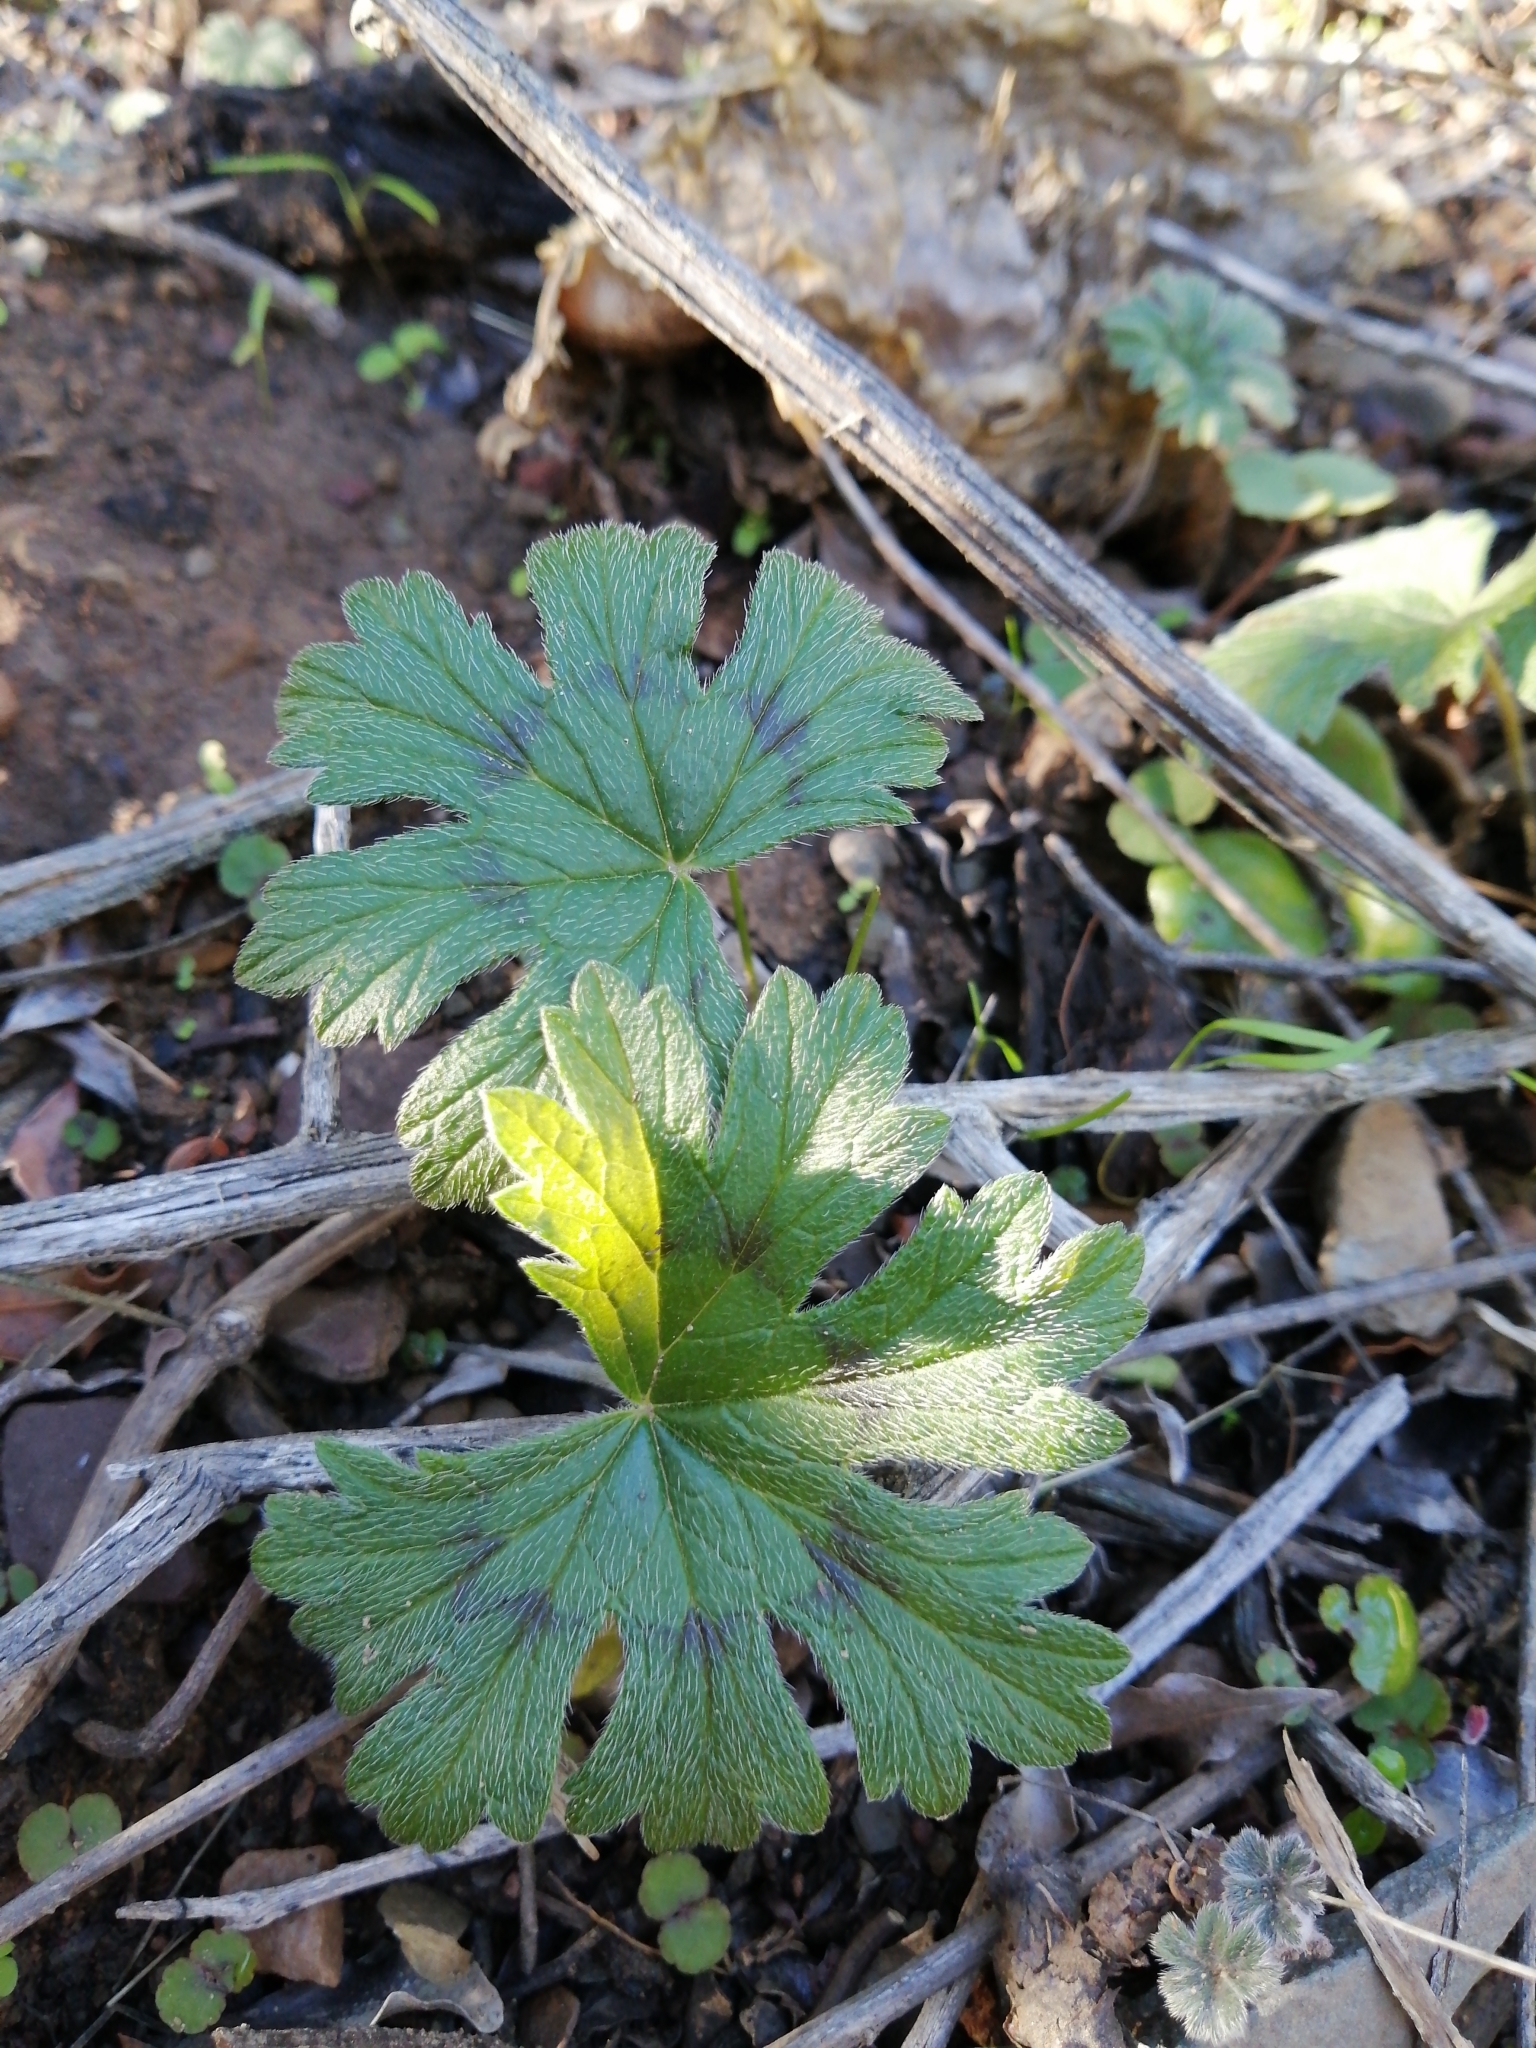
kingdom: Plantae
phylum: Tracheophyta
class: Magnoliopsida
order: Geraniales
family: Geraniaceae
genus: Pelargonium
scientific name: Pelargonium articulatum
